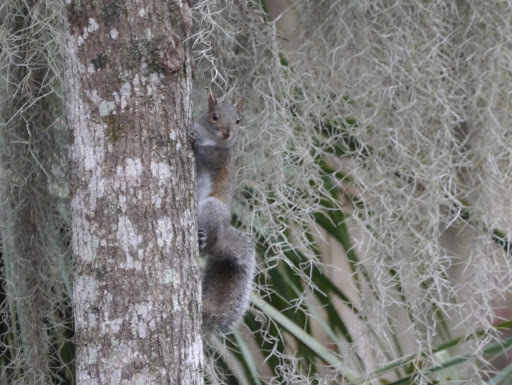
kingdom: Animalia
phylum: Chordata
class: Mammalia
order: Rodentia
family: Sciuridae
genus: Sciurus
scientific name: Sciurus carolinensis
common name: Eastern gray squirrel
